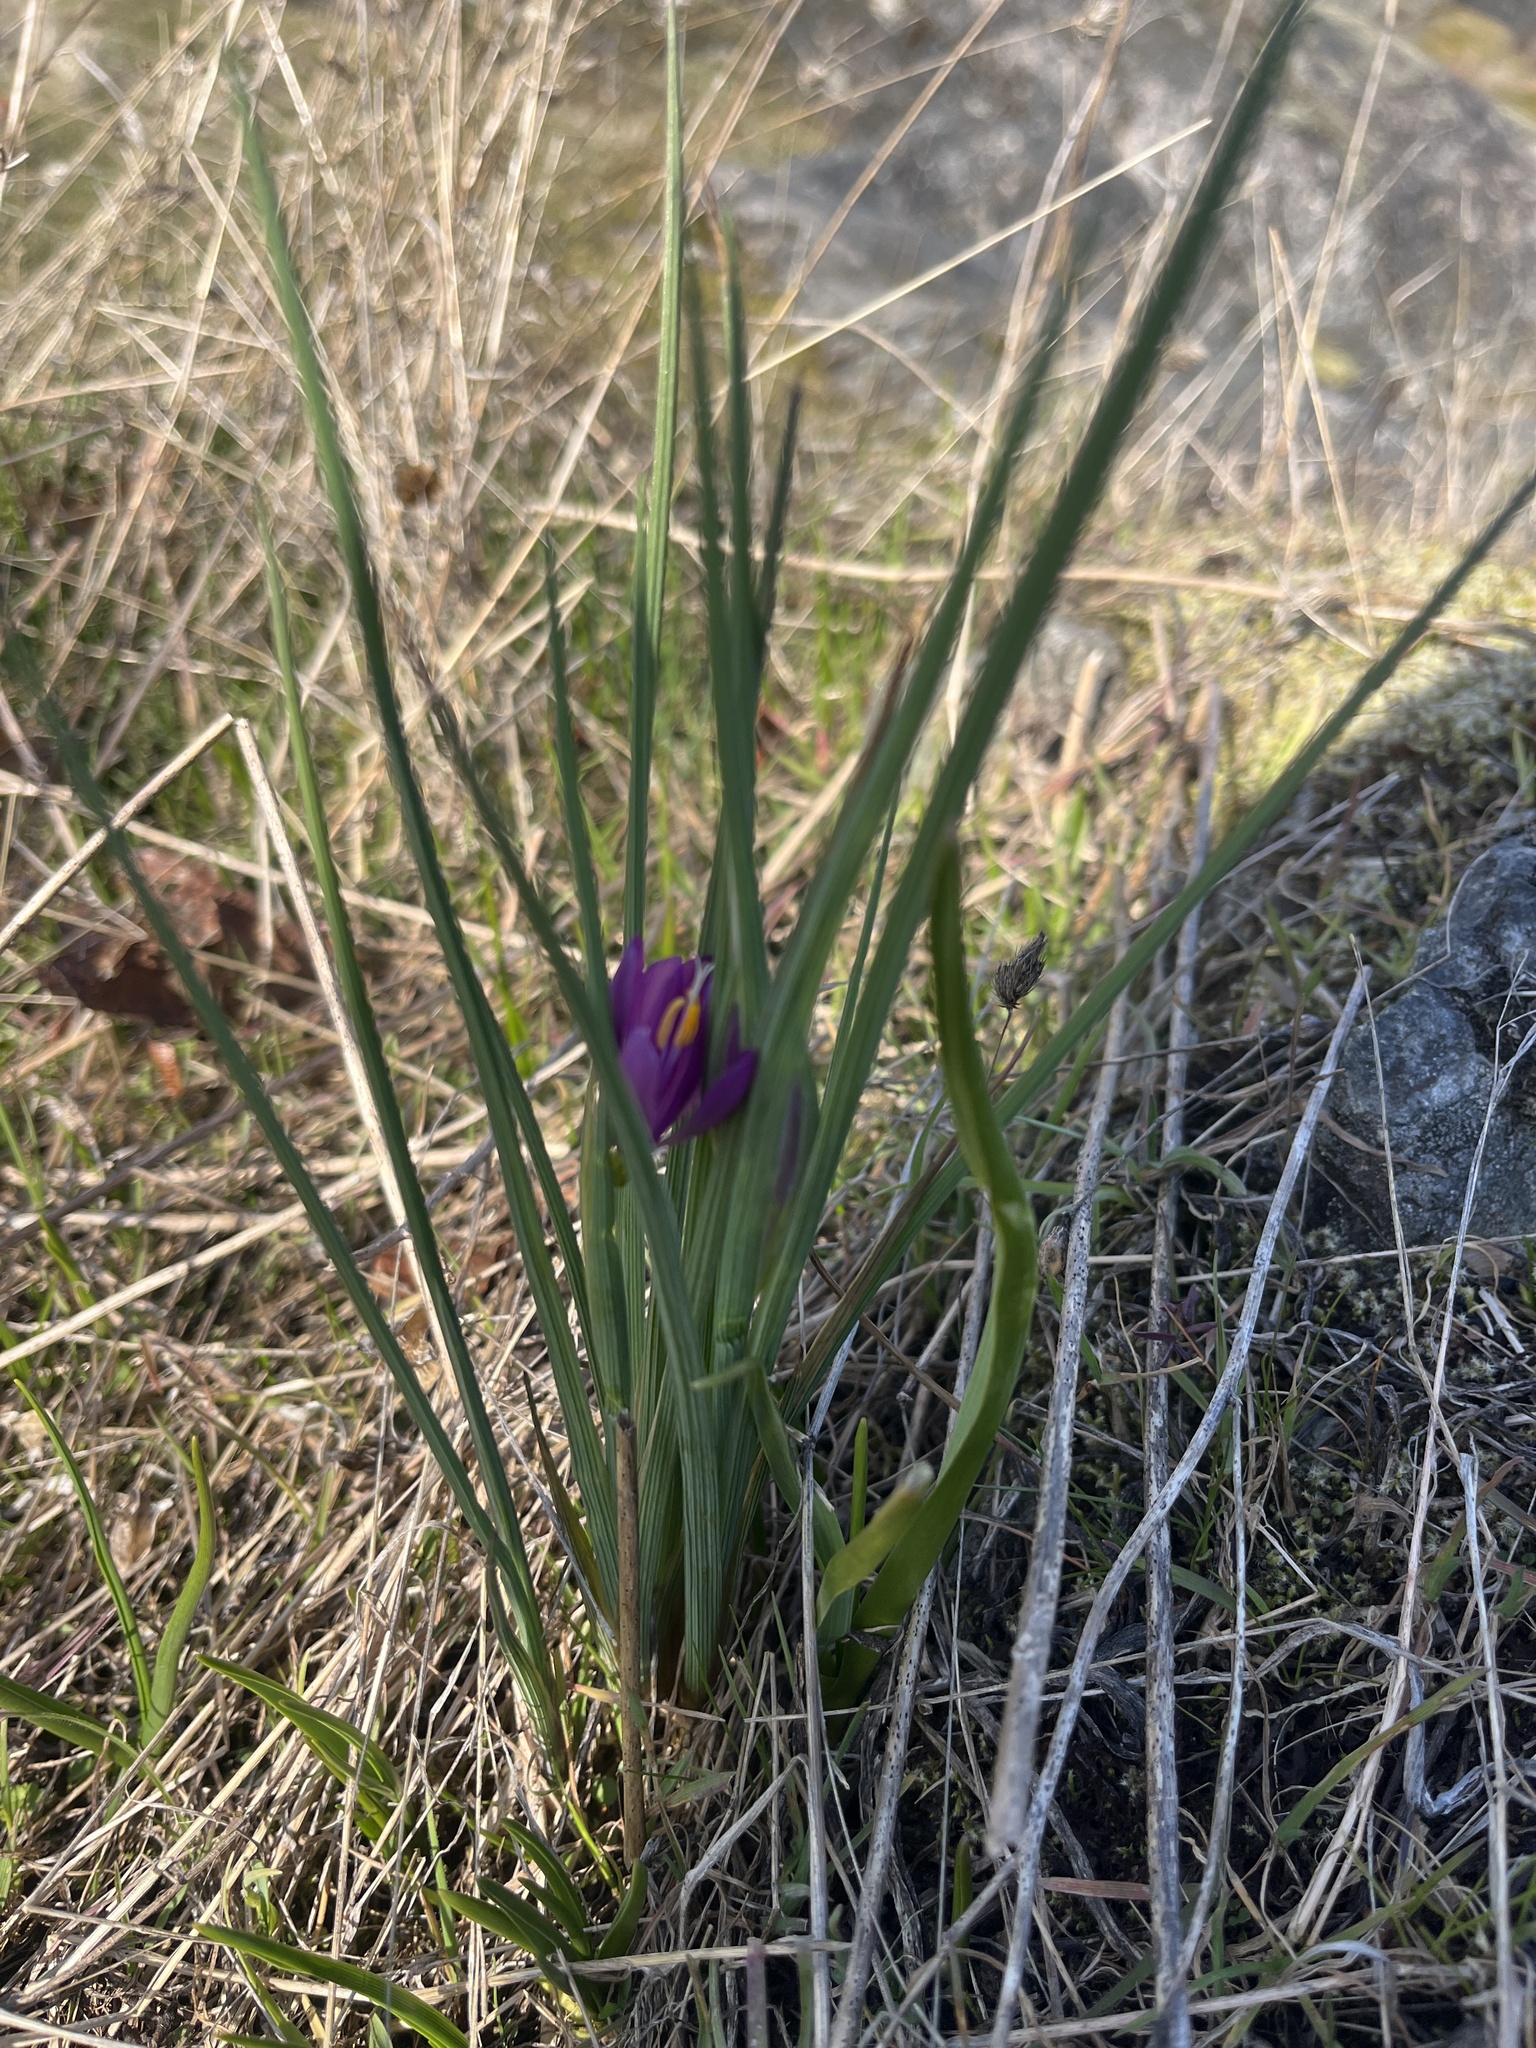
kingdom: Plantae
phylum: Tracheophyta
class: Liliopsida
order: Asparagales
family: Iridaceae
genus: Olsynium
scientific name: Olsynium douglasii
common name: Douglas' grasswidow
